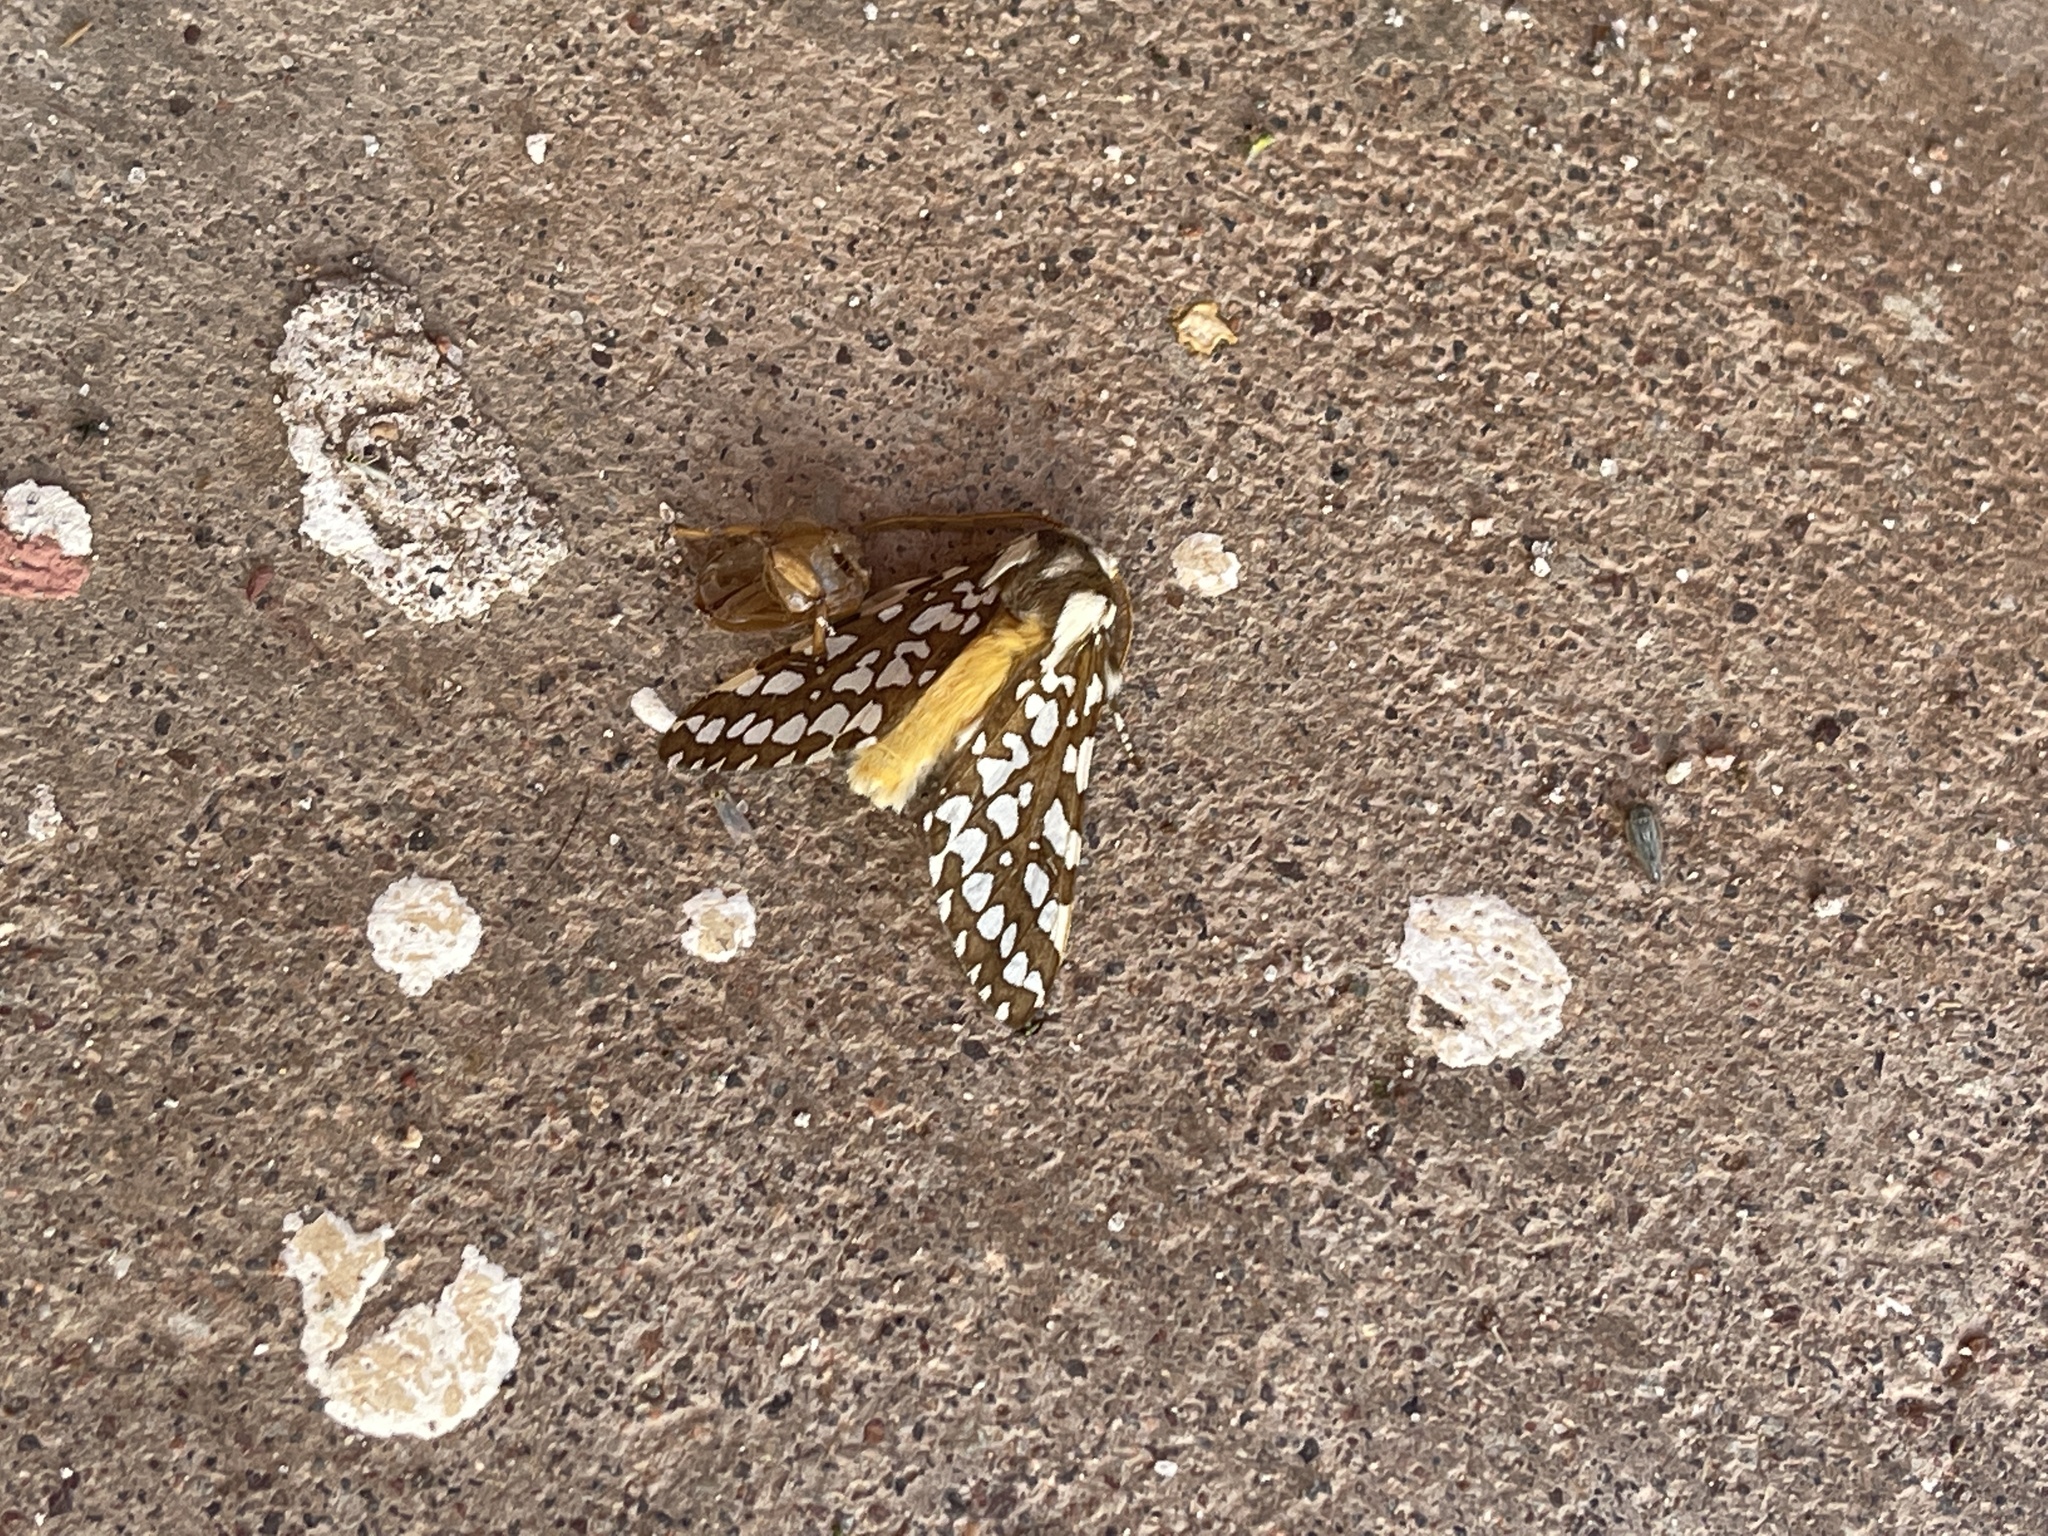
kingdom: Animalia
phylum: Arthropoda
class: Insecta
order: Lepidoptera
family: Erebidae
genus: Lophocampa
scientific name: Lophocampa ingens
